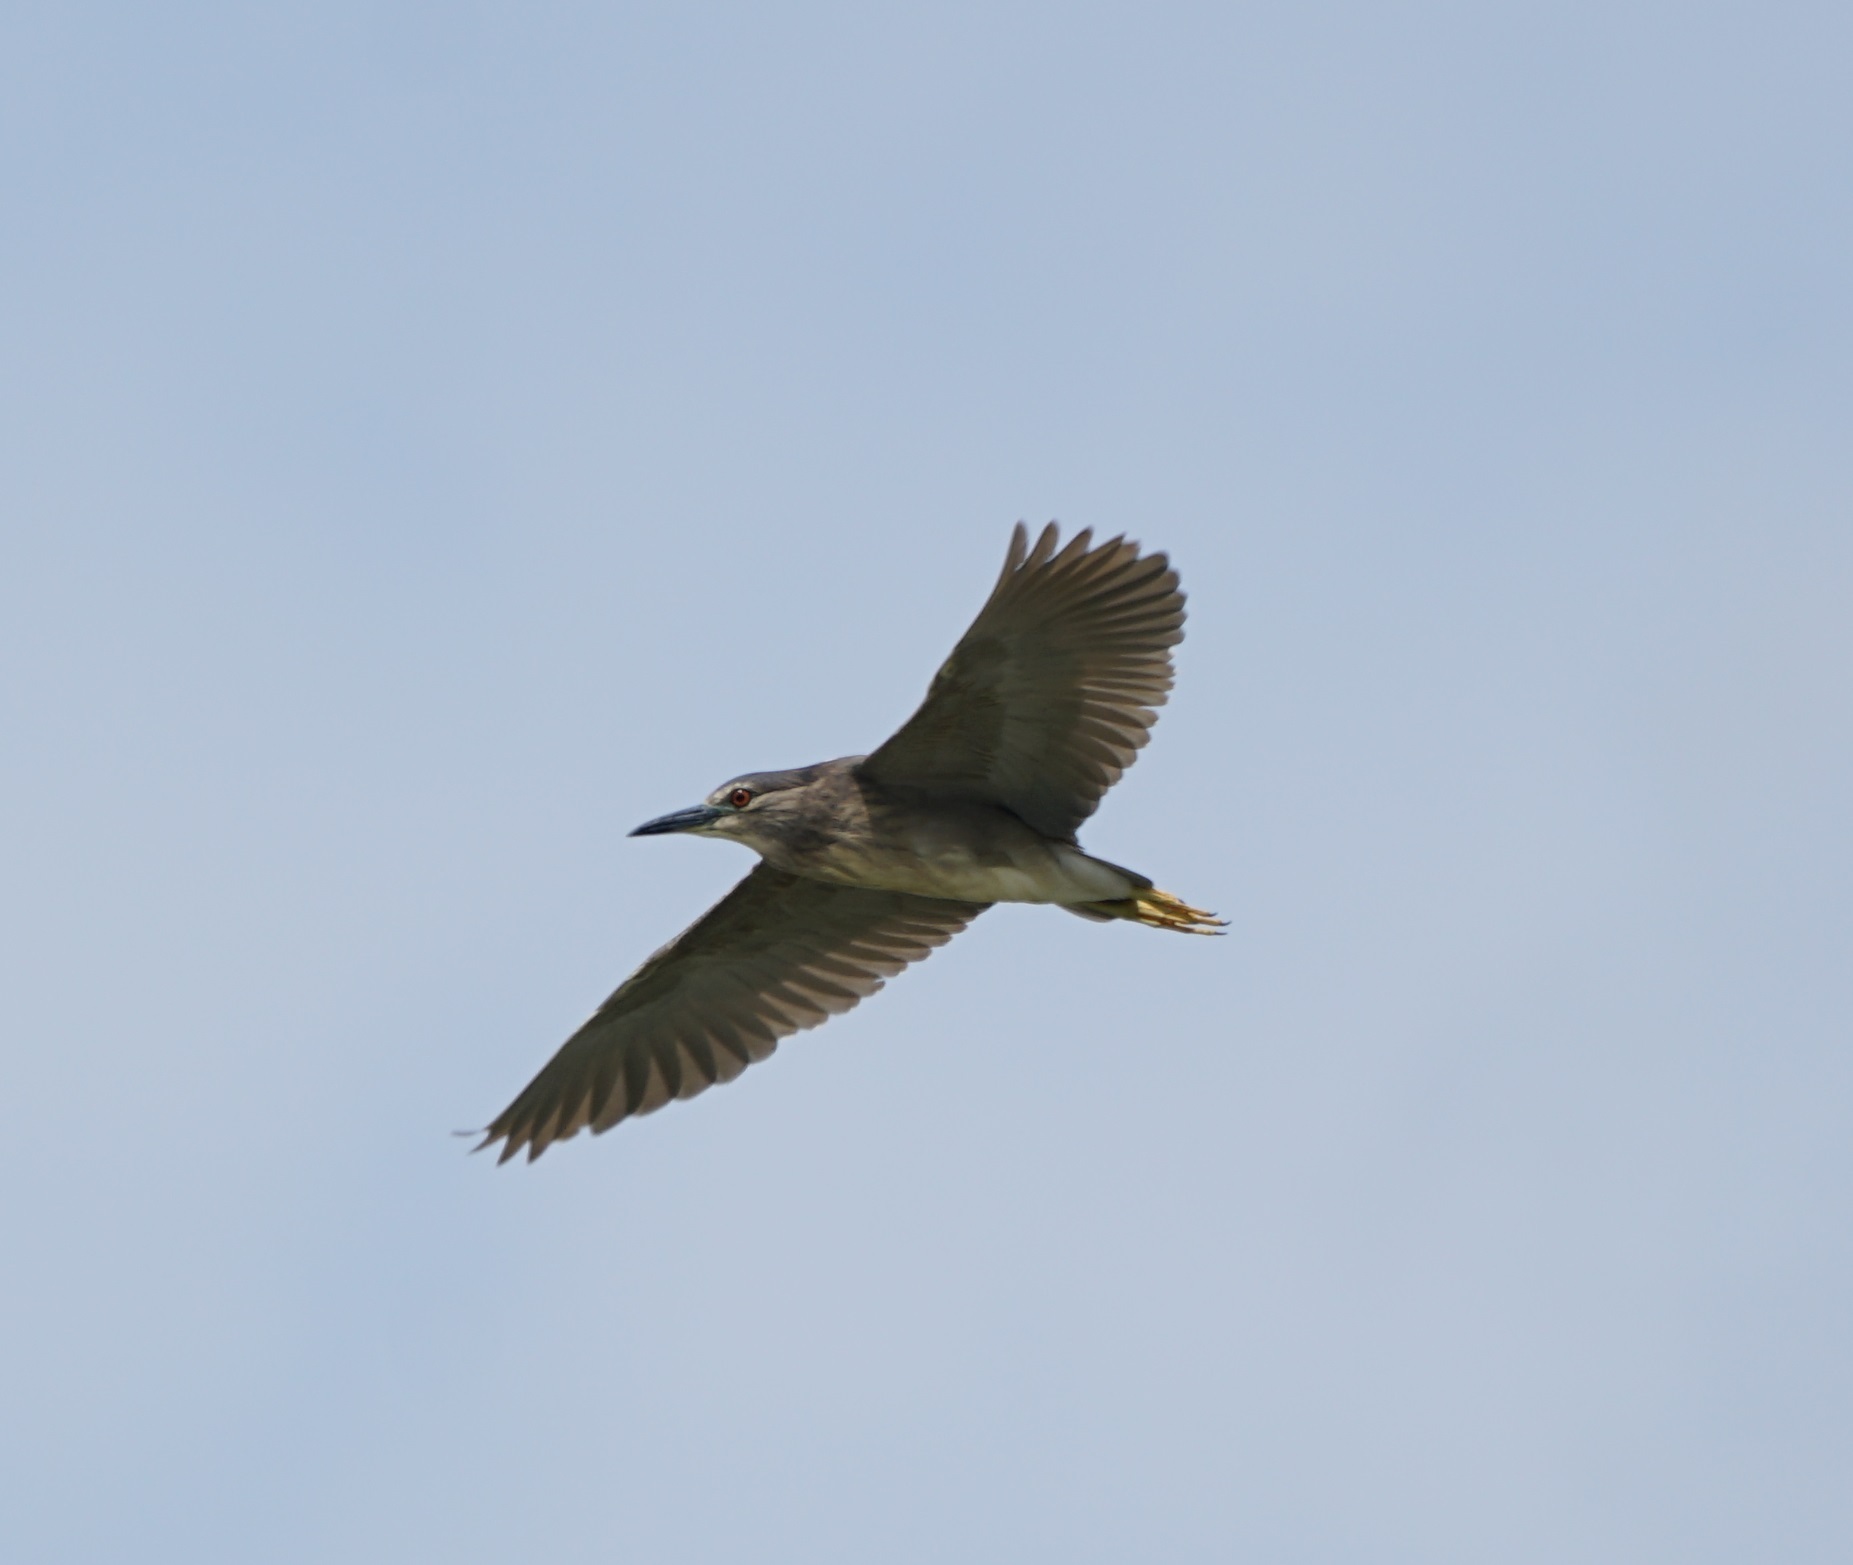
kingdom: Animalia
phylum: Chordata
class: Aves
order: Pelecaniformes
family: Ardeidae
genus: Nycticorax
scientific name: Nycticorax nycticorax
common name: Black-crowned night heron
